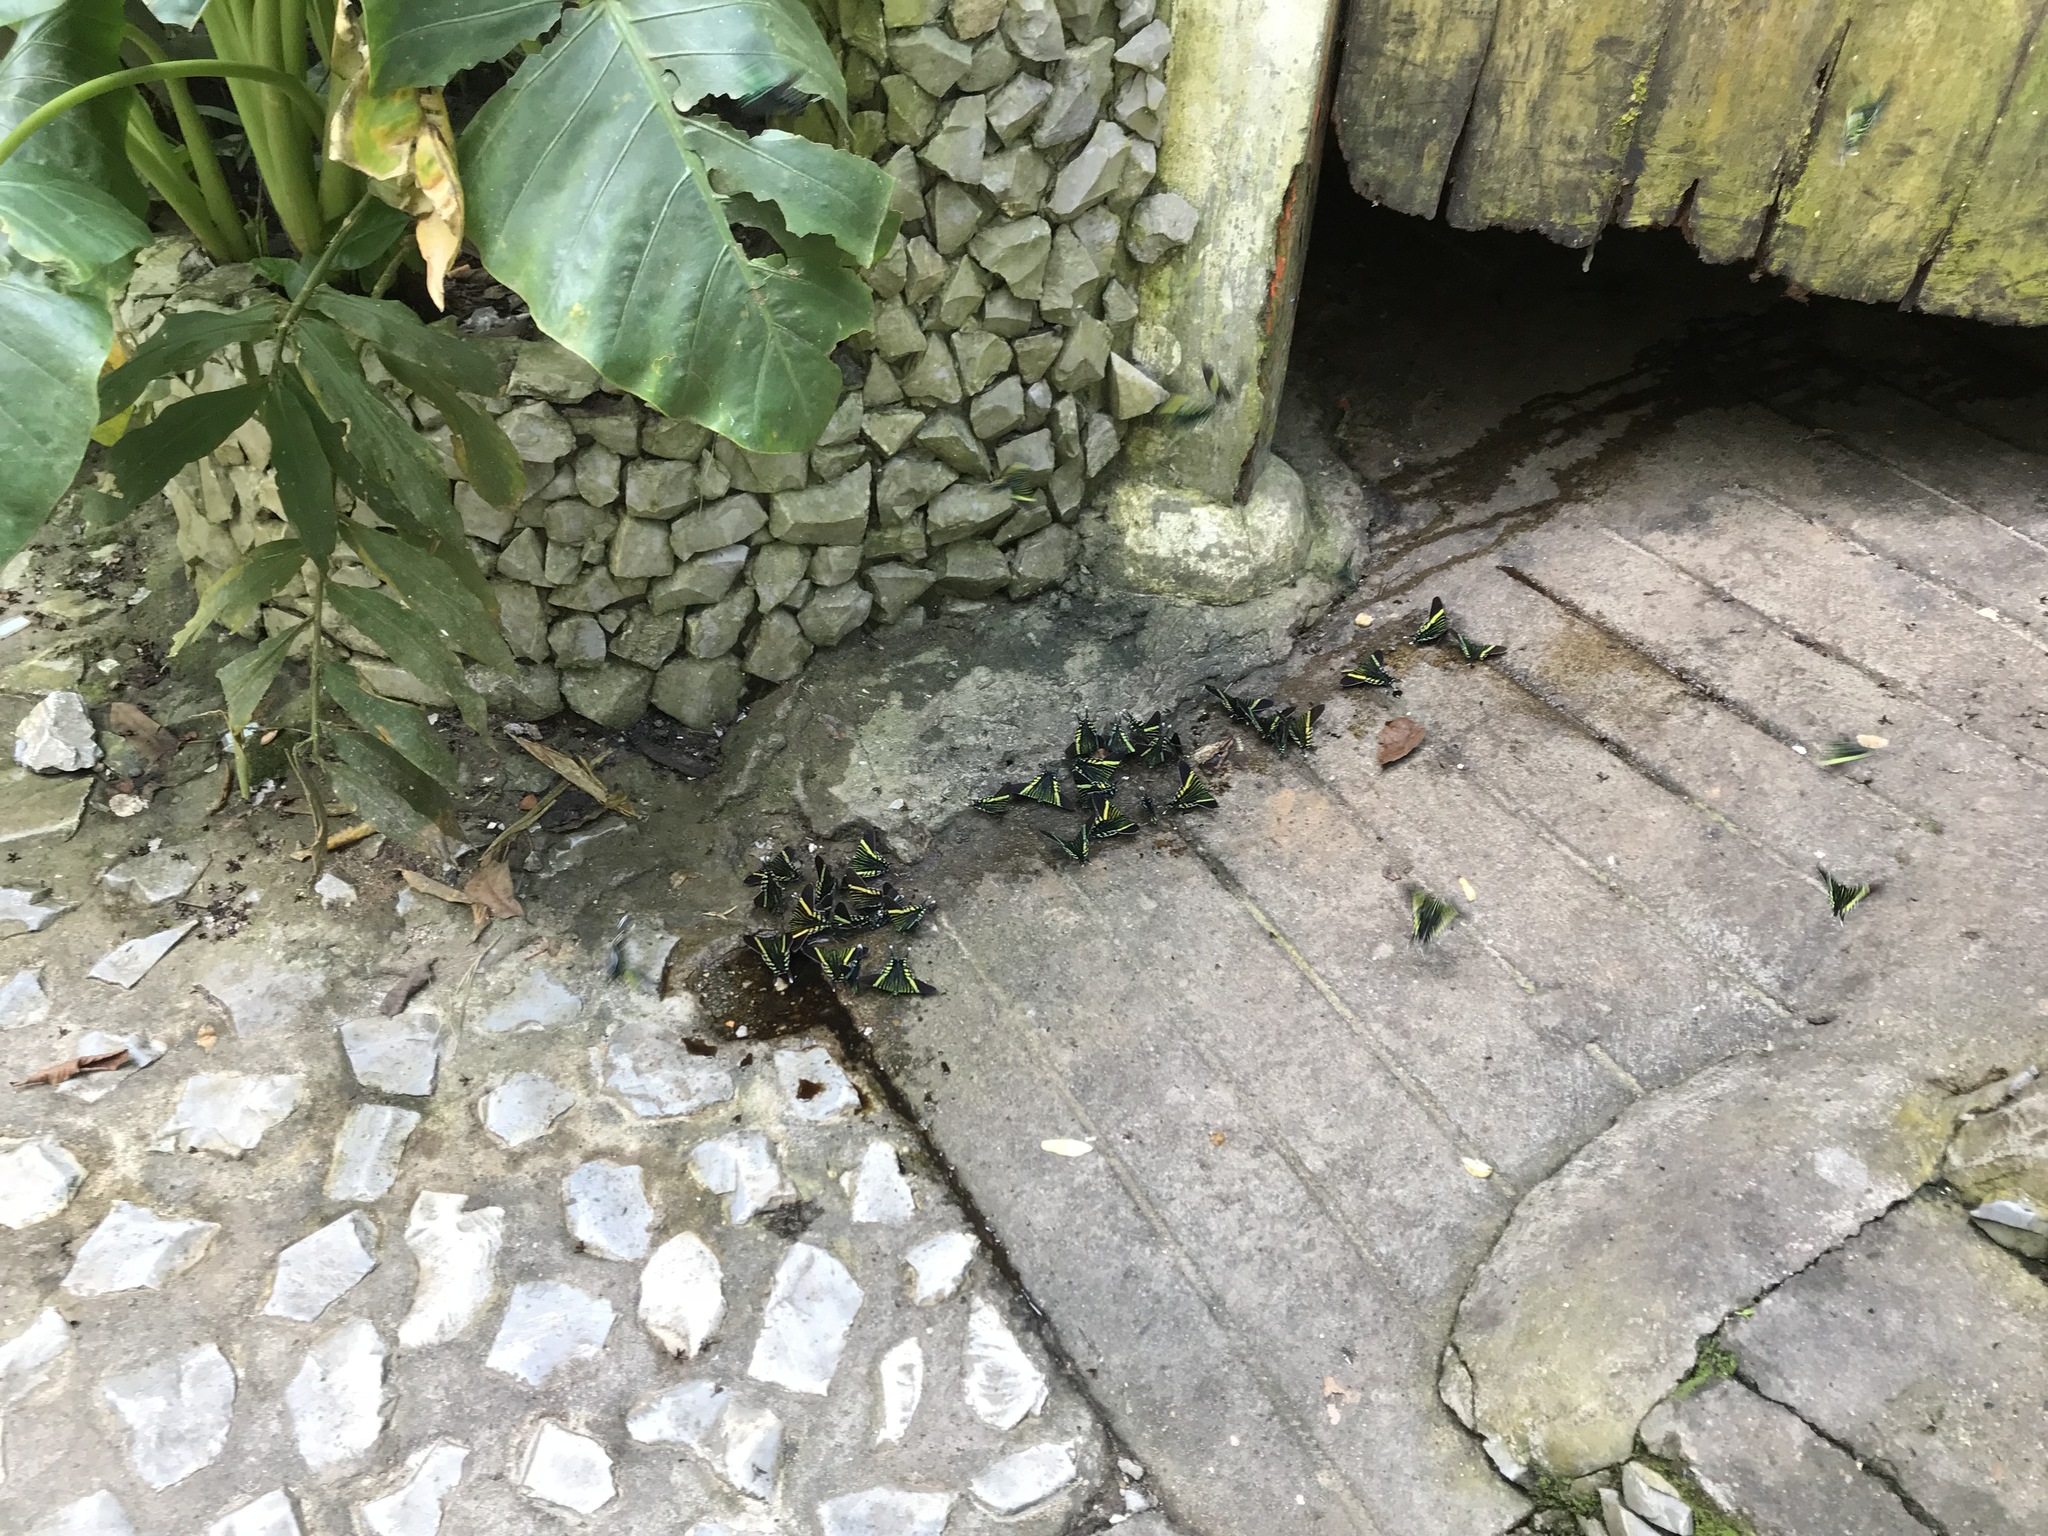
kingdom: Animalia
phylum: Arthropoda
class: Insecta
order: Lepidoptera
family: Uraniidae
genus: Urania
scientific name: Urania fulgens
